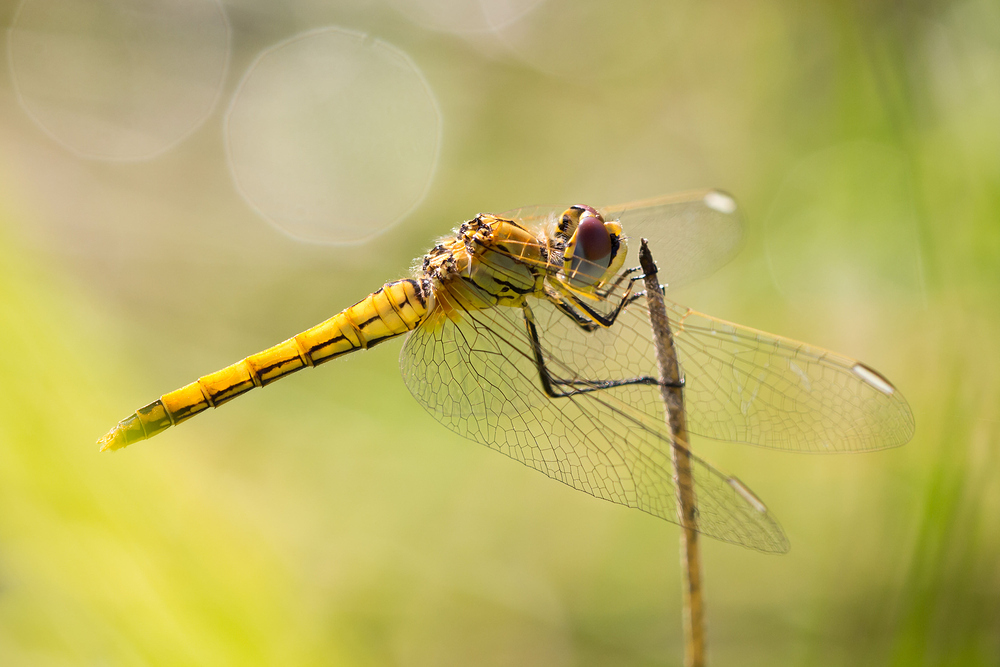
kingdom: Animalia
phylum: Arthropoda
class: Insecta
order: Odonata
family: Libellulidae
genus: Sympetrum
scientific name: Sympetrum fonscolombii
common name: Red-veined darter
